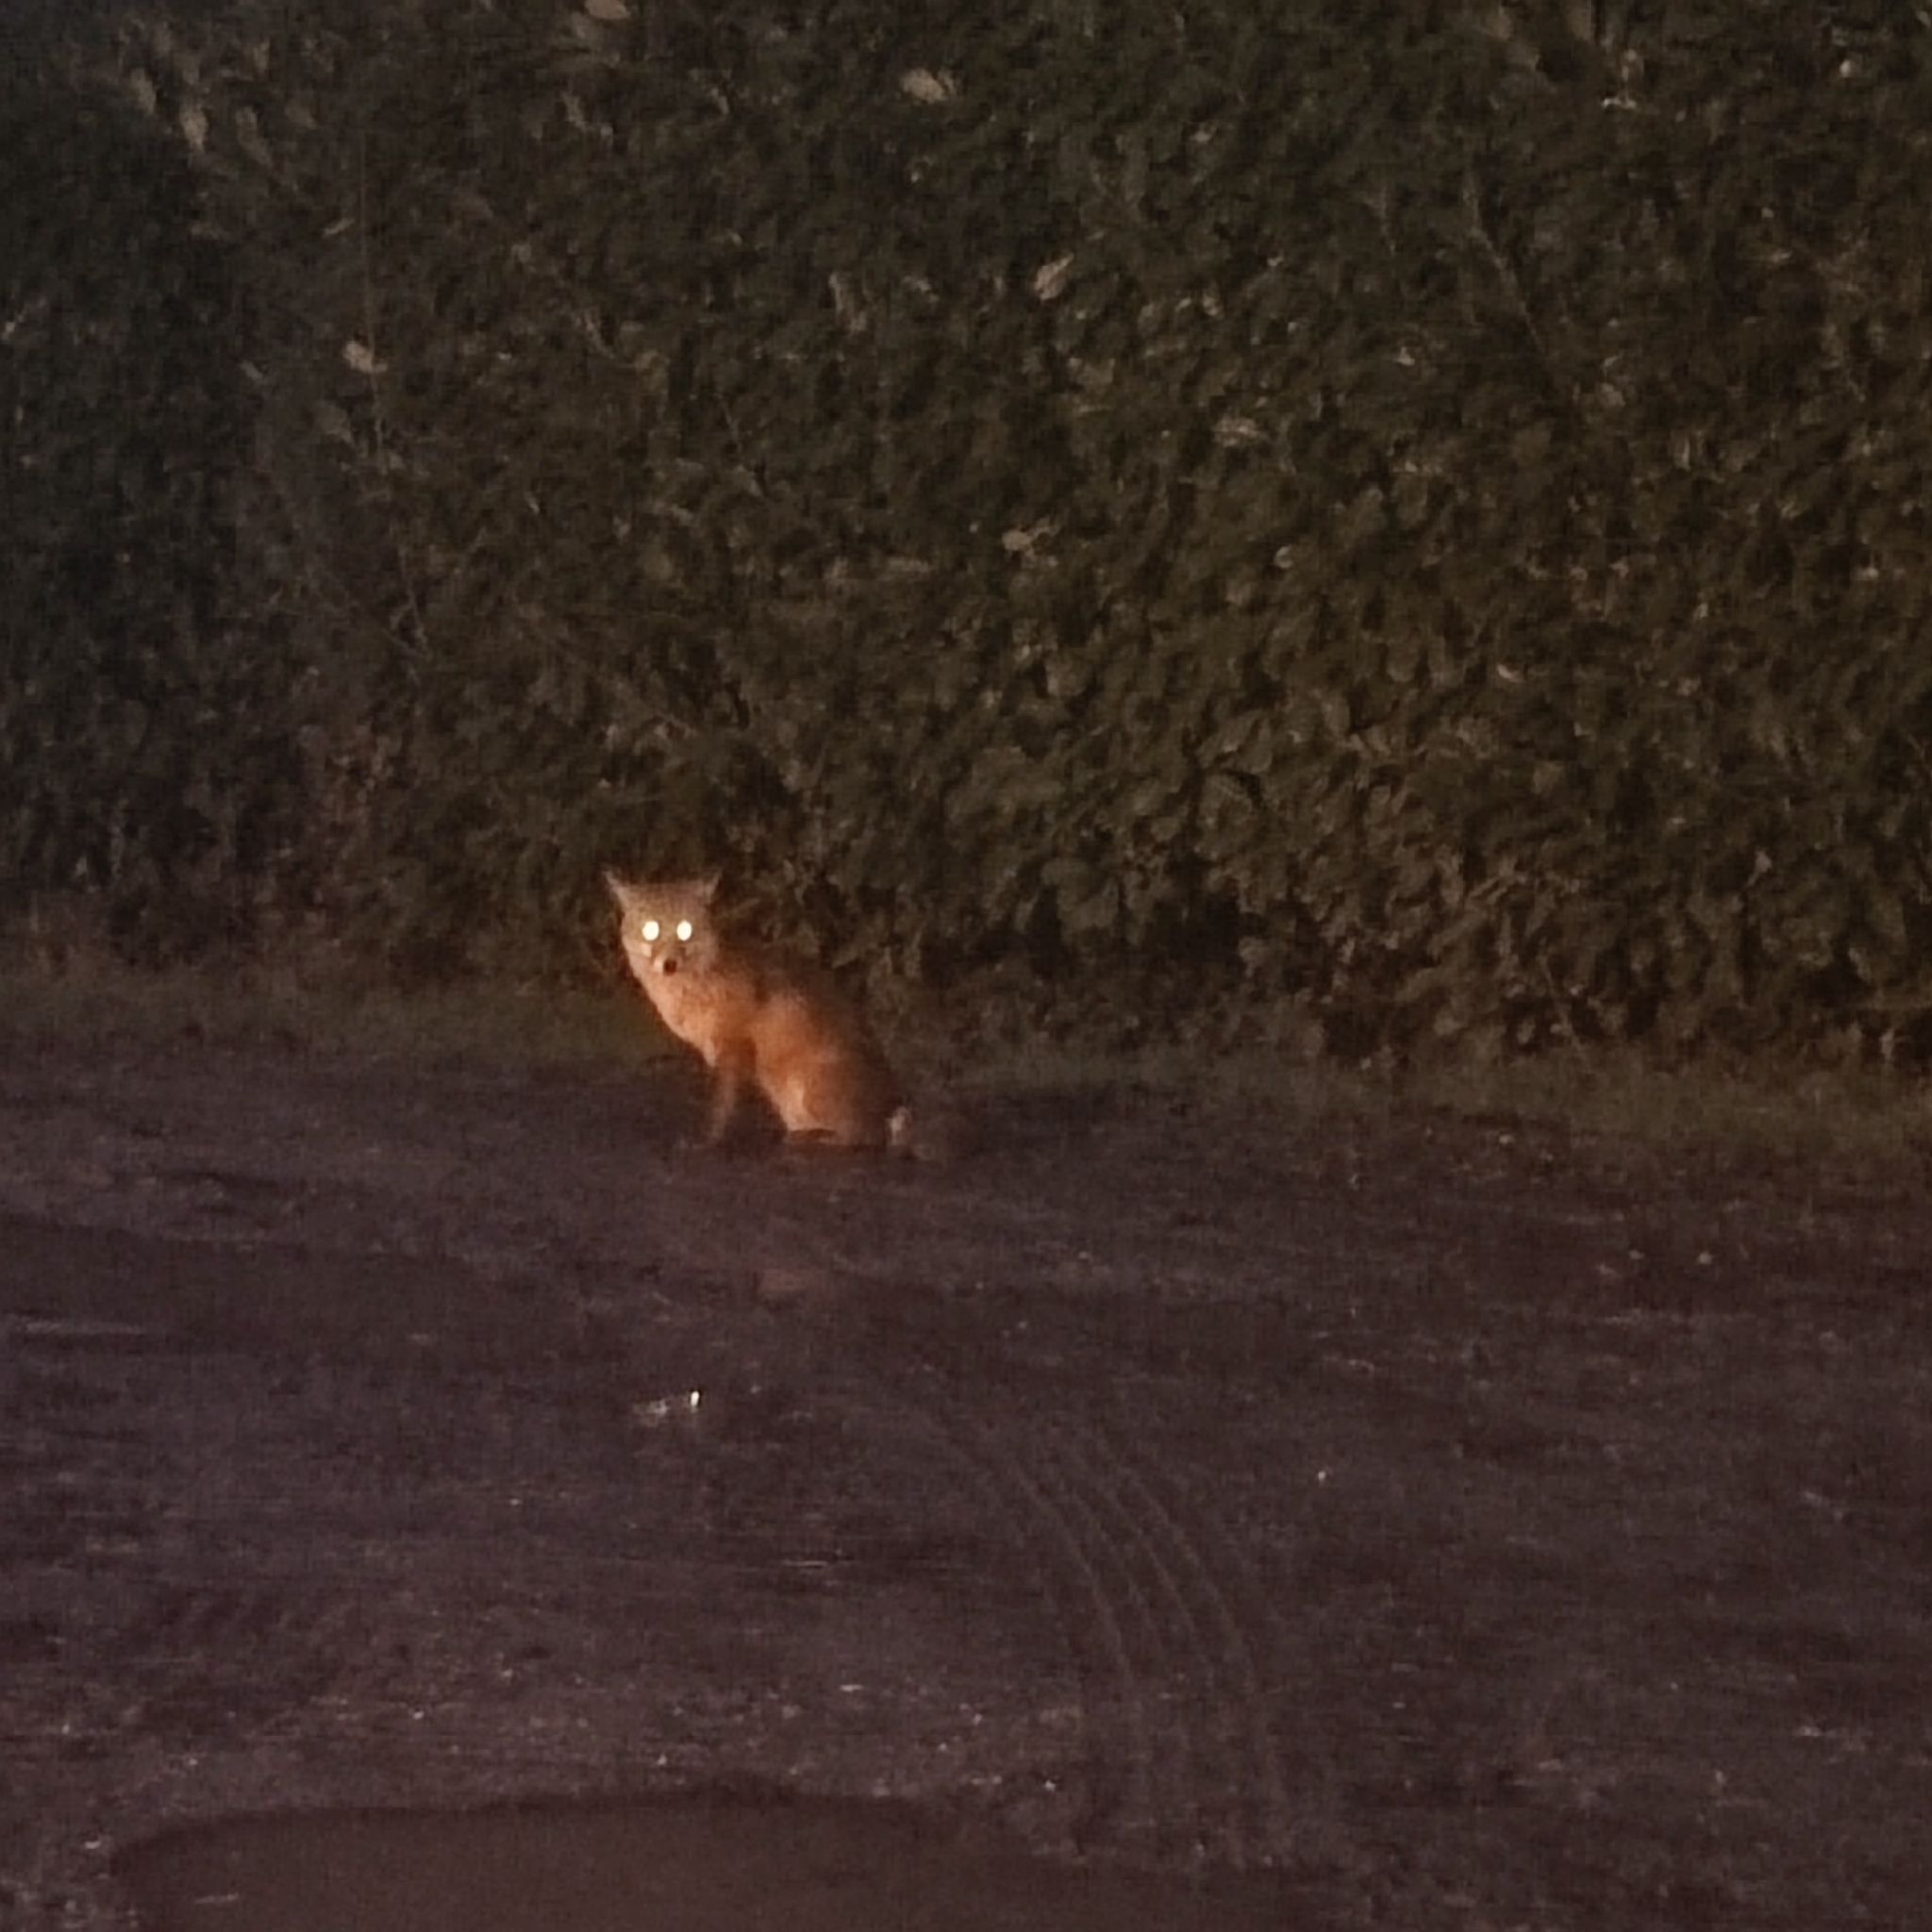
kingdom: Animalia
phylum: Chordata
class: Mammalia
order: Carnivora
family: Canidae
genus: Vulpes
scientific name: Vulpes vulpes
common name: Red fox
